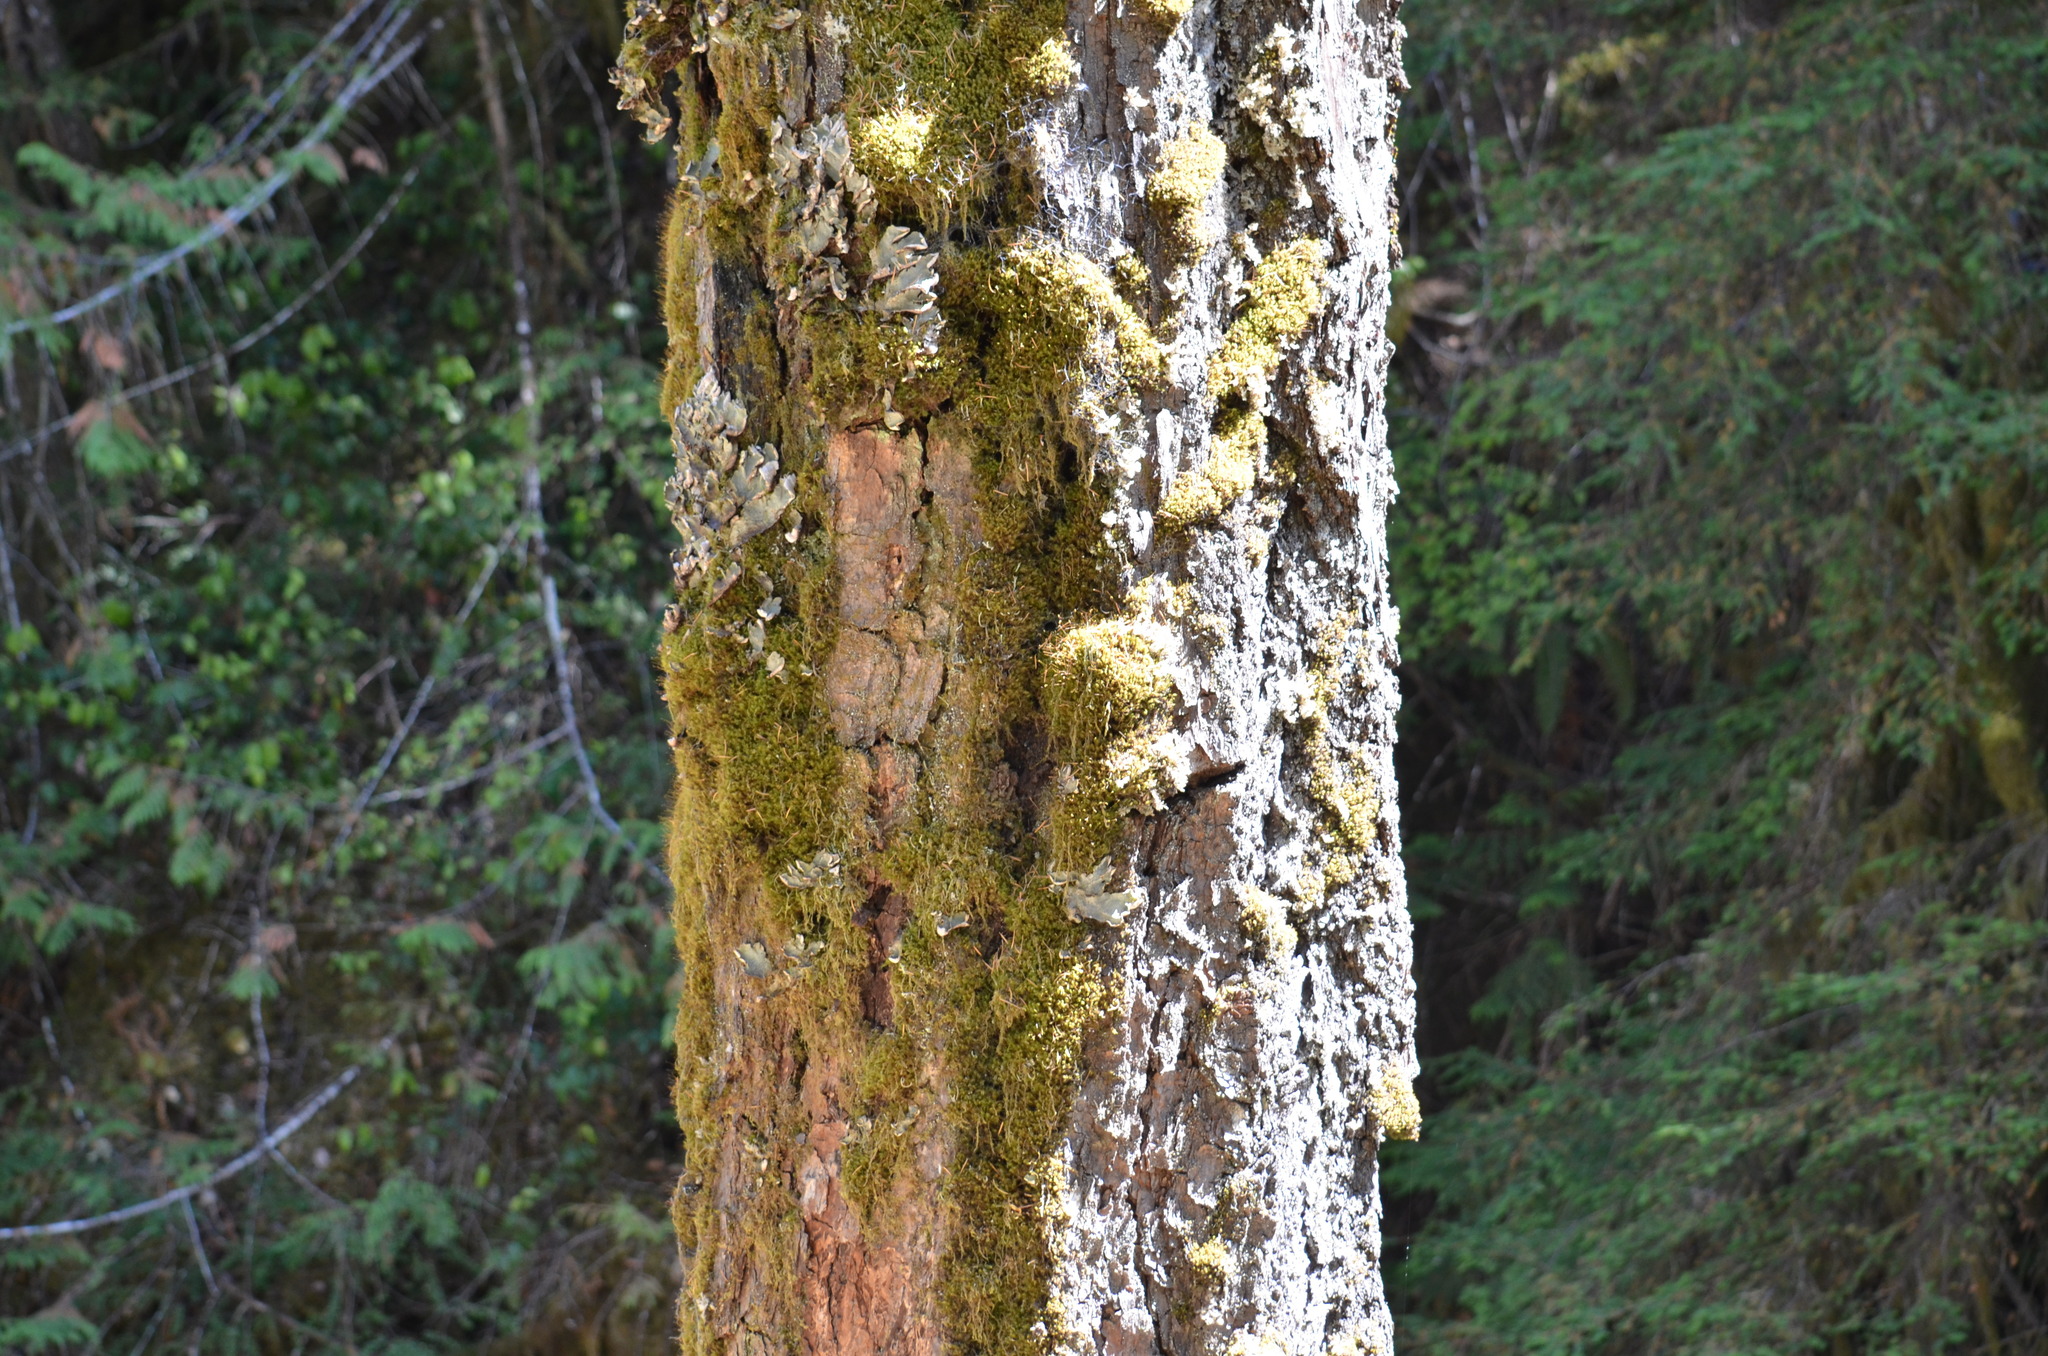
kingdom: Plantae
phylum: Tracheophyta
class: Magnoliopsida
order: Sapindales
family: Sapindaceae
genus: Acer
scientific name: Acer macrophyllum
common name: Oregon maple
